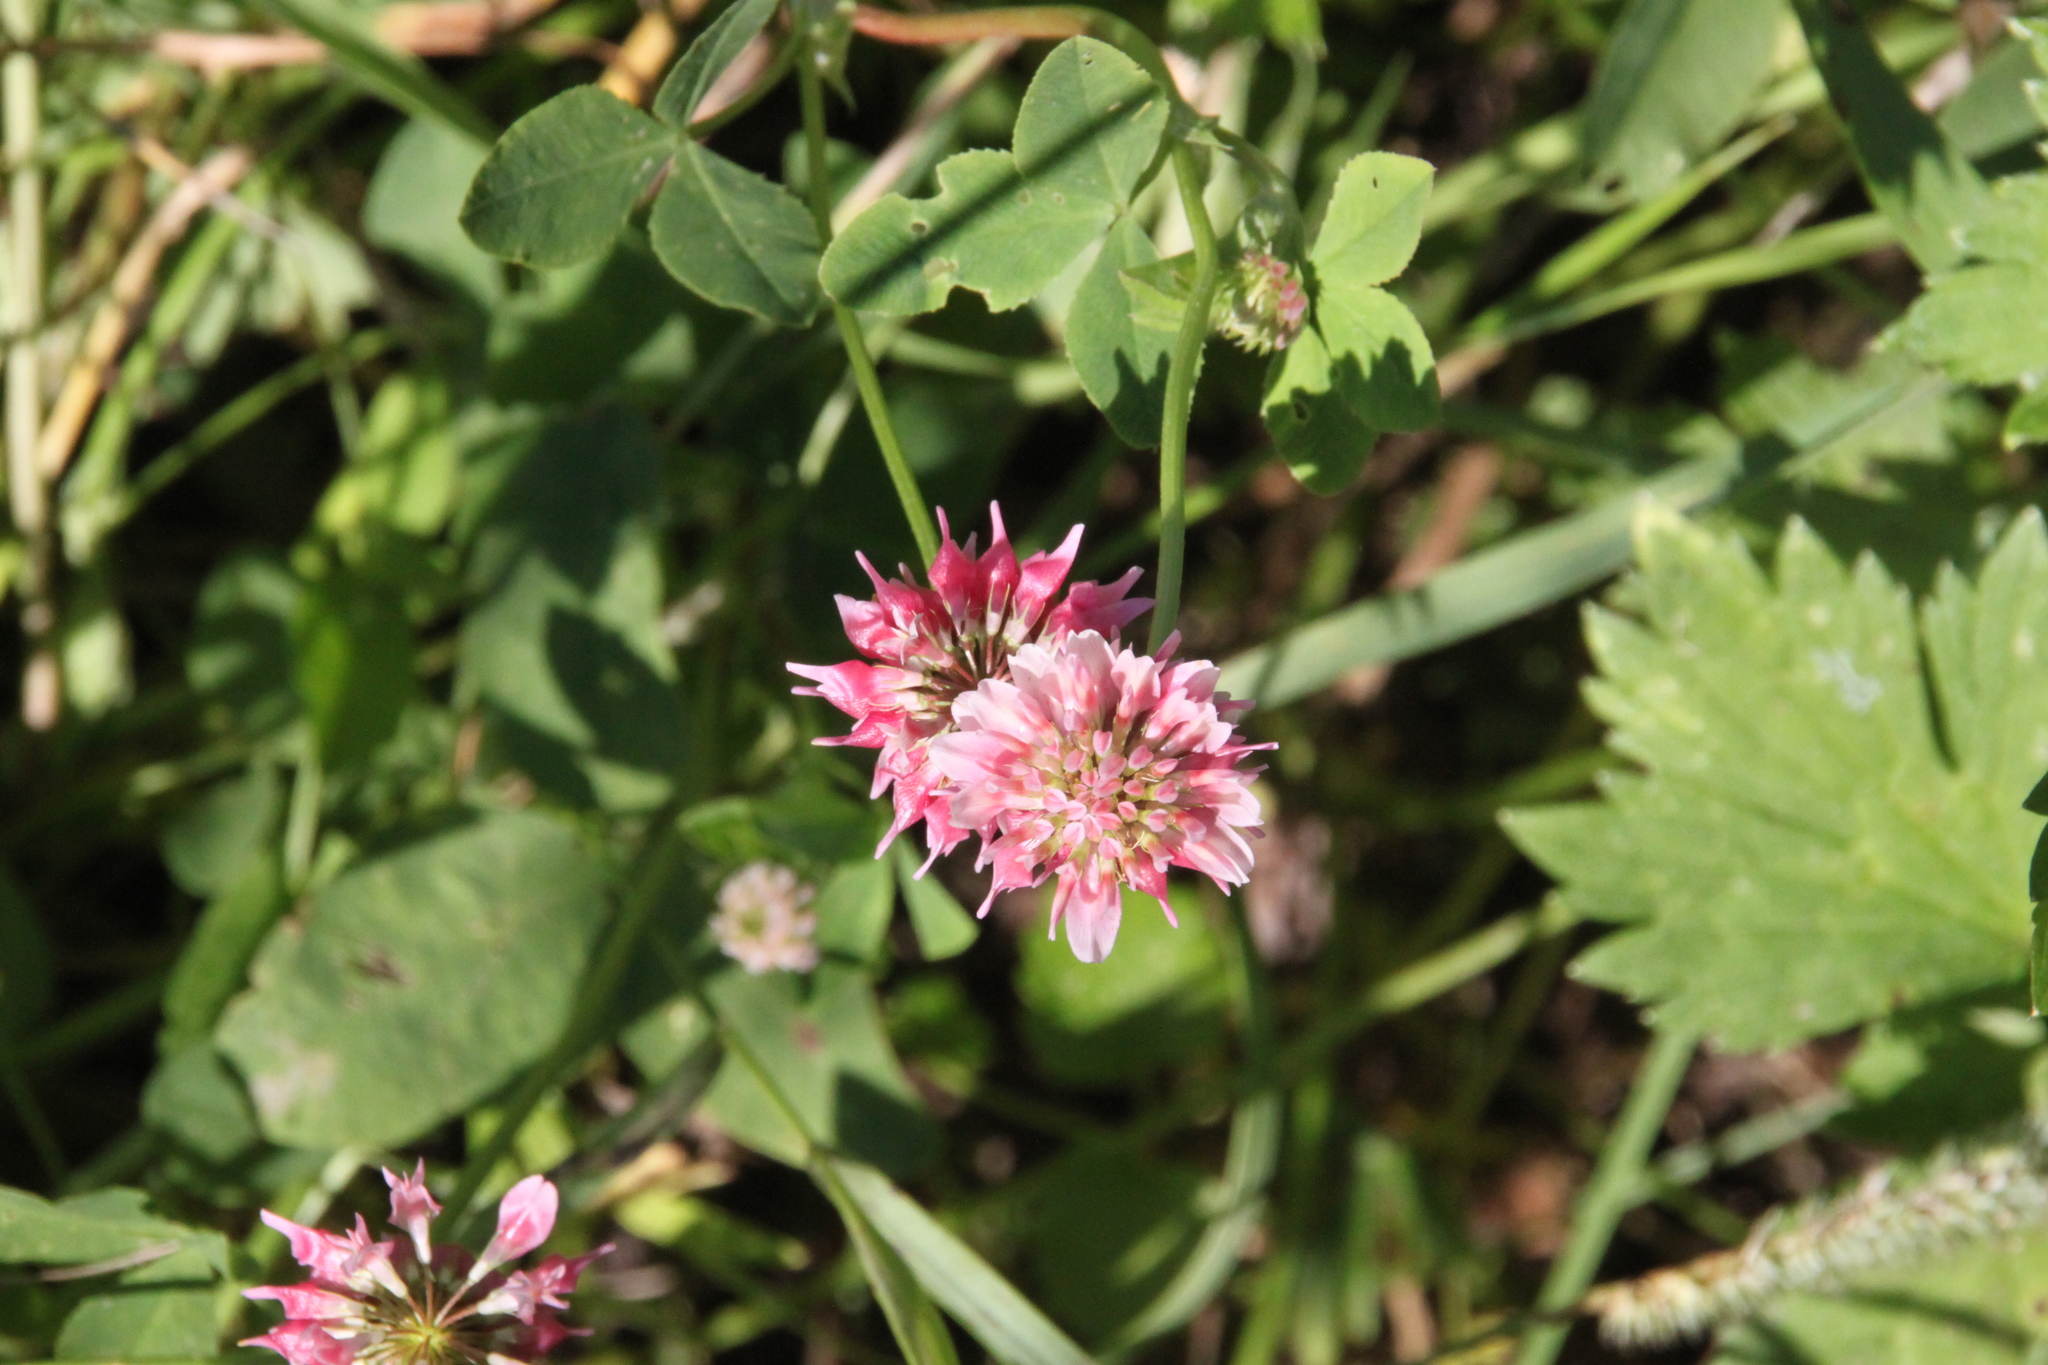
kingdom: Plantae
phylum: Tracheophyta
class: Magnoliopsida
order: Fabales
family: Fabaceae
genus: Trifolium
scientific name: Trifolium hybridum
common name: Alsike clover
